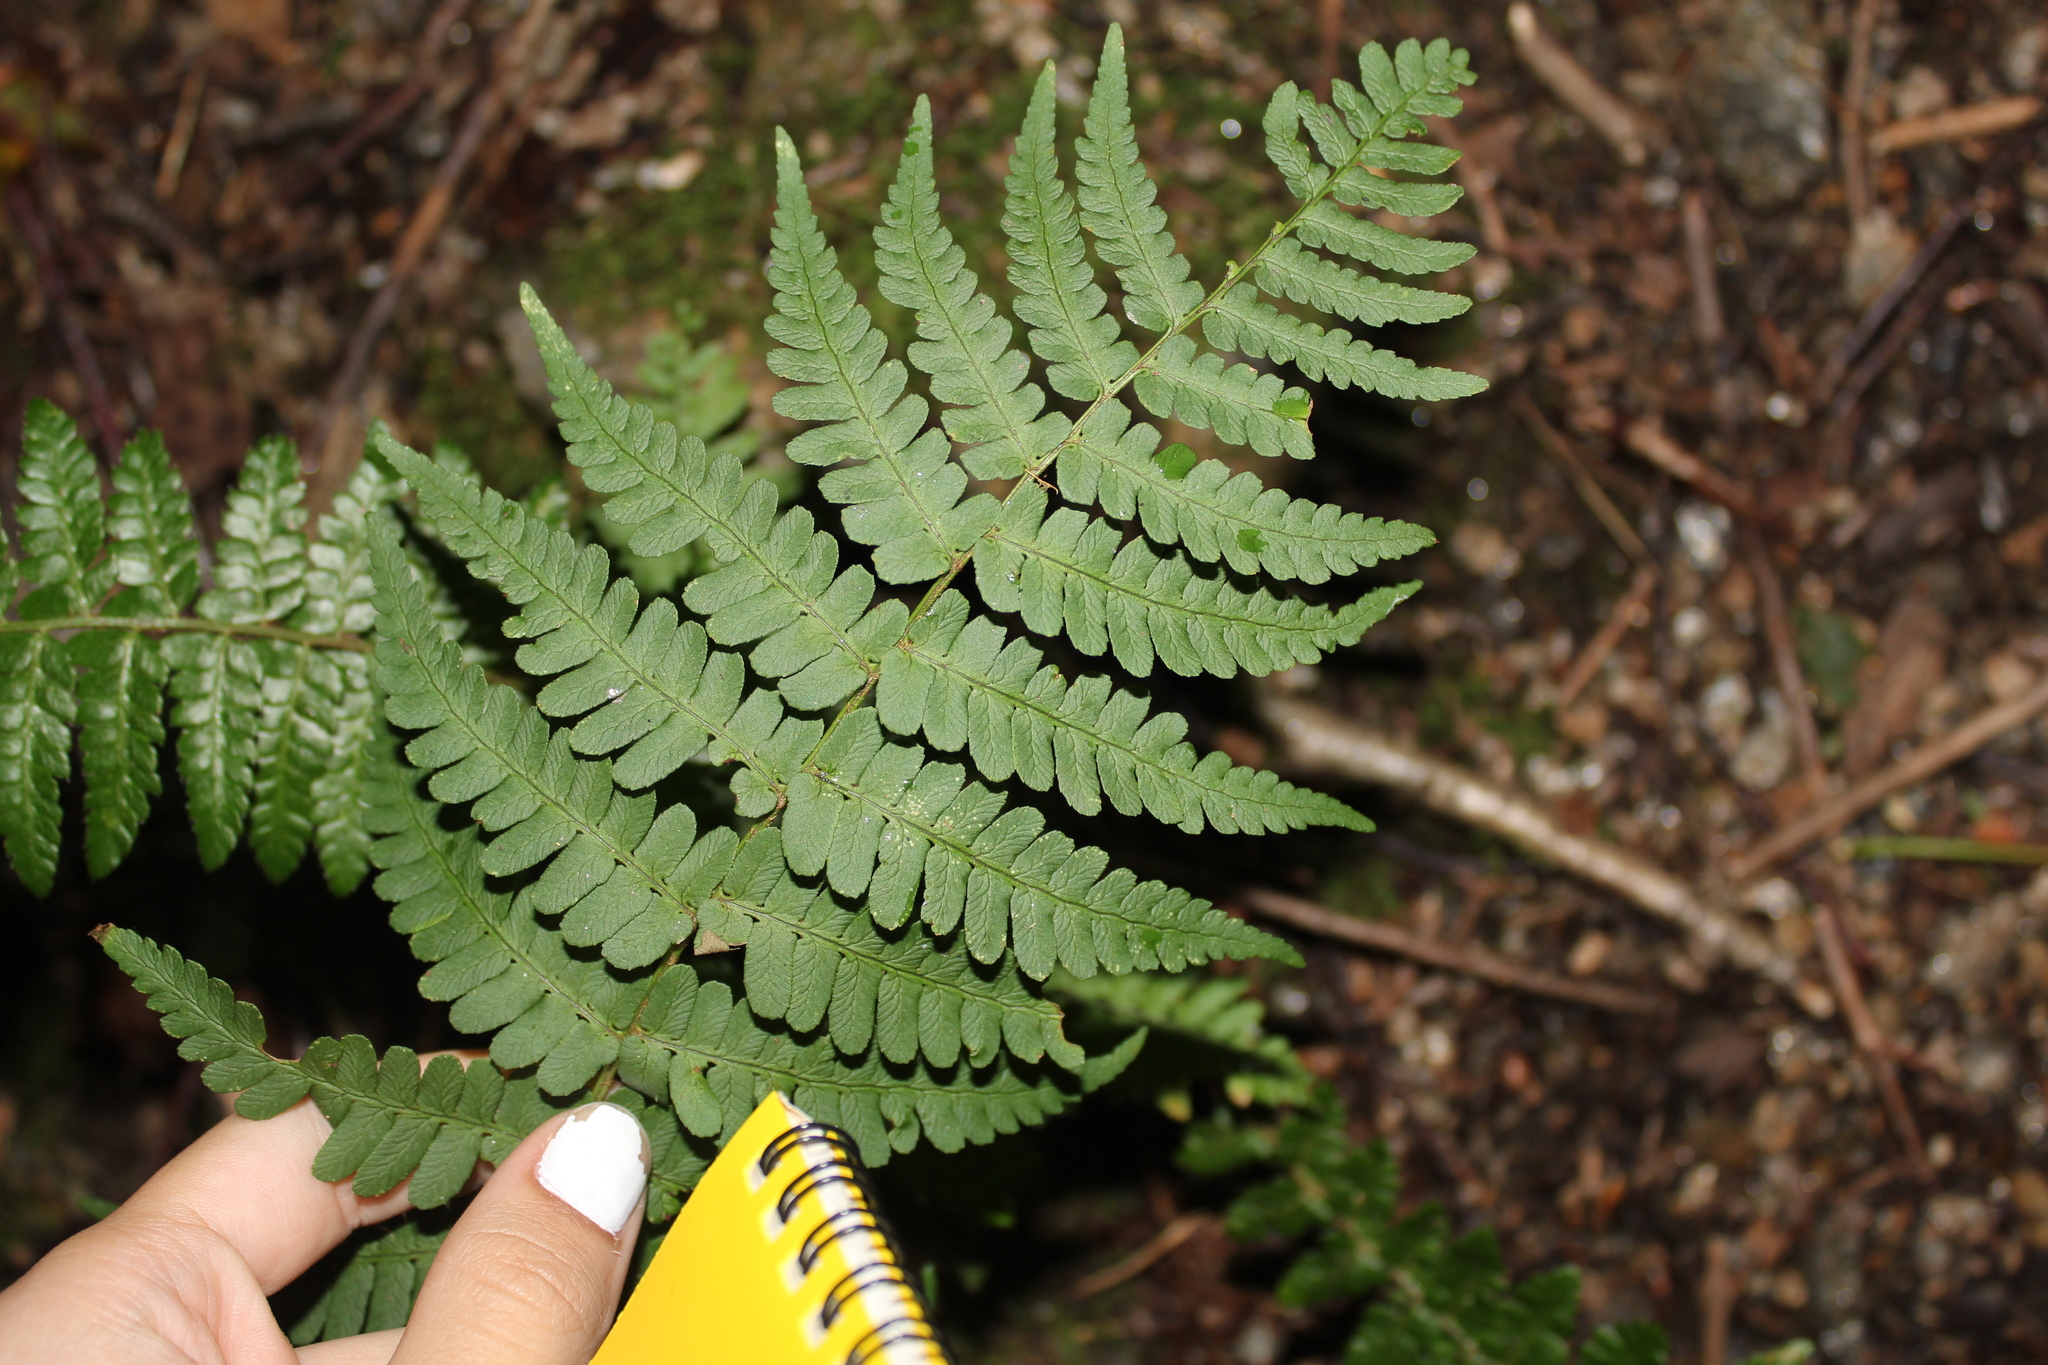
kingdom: Plantae
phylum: Tracheophyta
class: Polypodiopsida
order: Polypodiales
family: Dryopteridaceae
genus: Dryopteris
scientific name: Dryopteris marginalis
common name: Marginal wood fern
